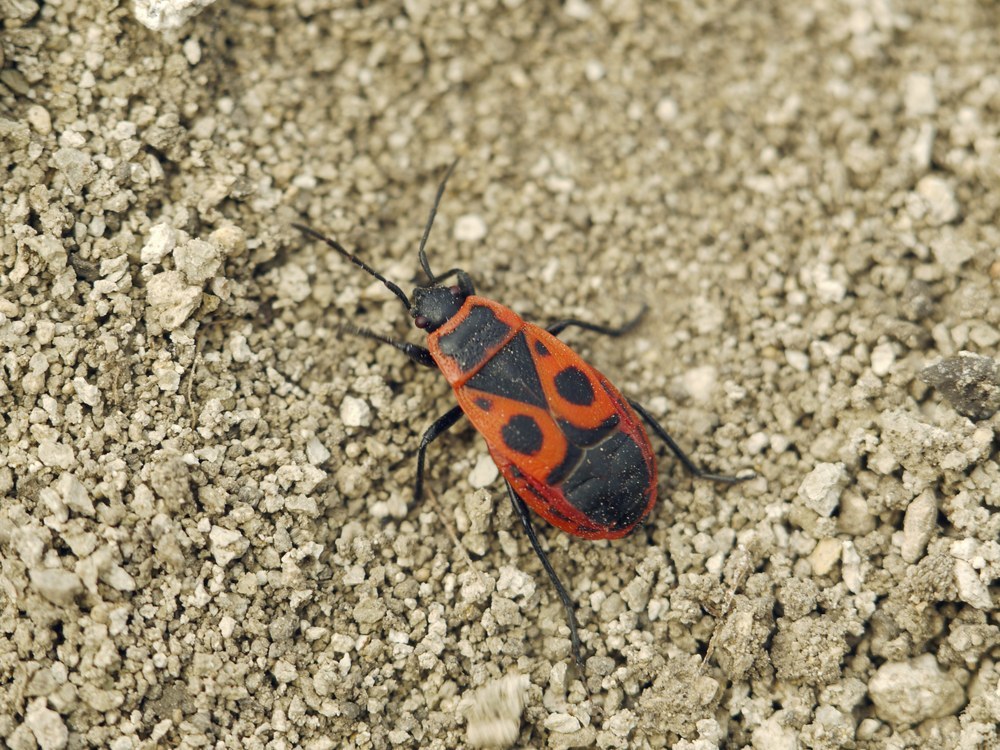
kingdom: Animalia
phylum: Arthropoda
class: Insecta
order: Hemiptera
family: Pyrrhocoridae
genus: Pyrrhocoris
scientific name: Pyrrhocoris apterus
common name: Firebug
